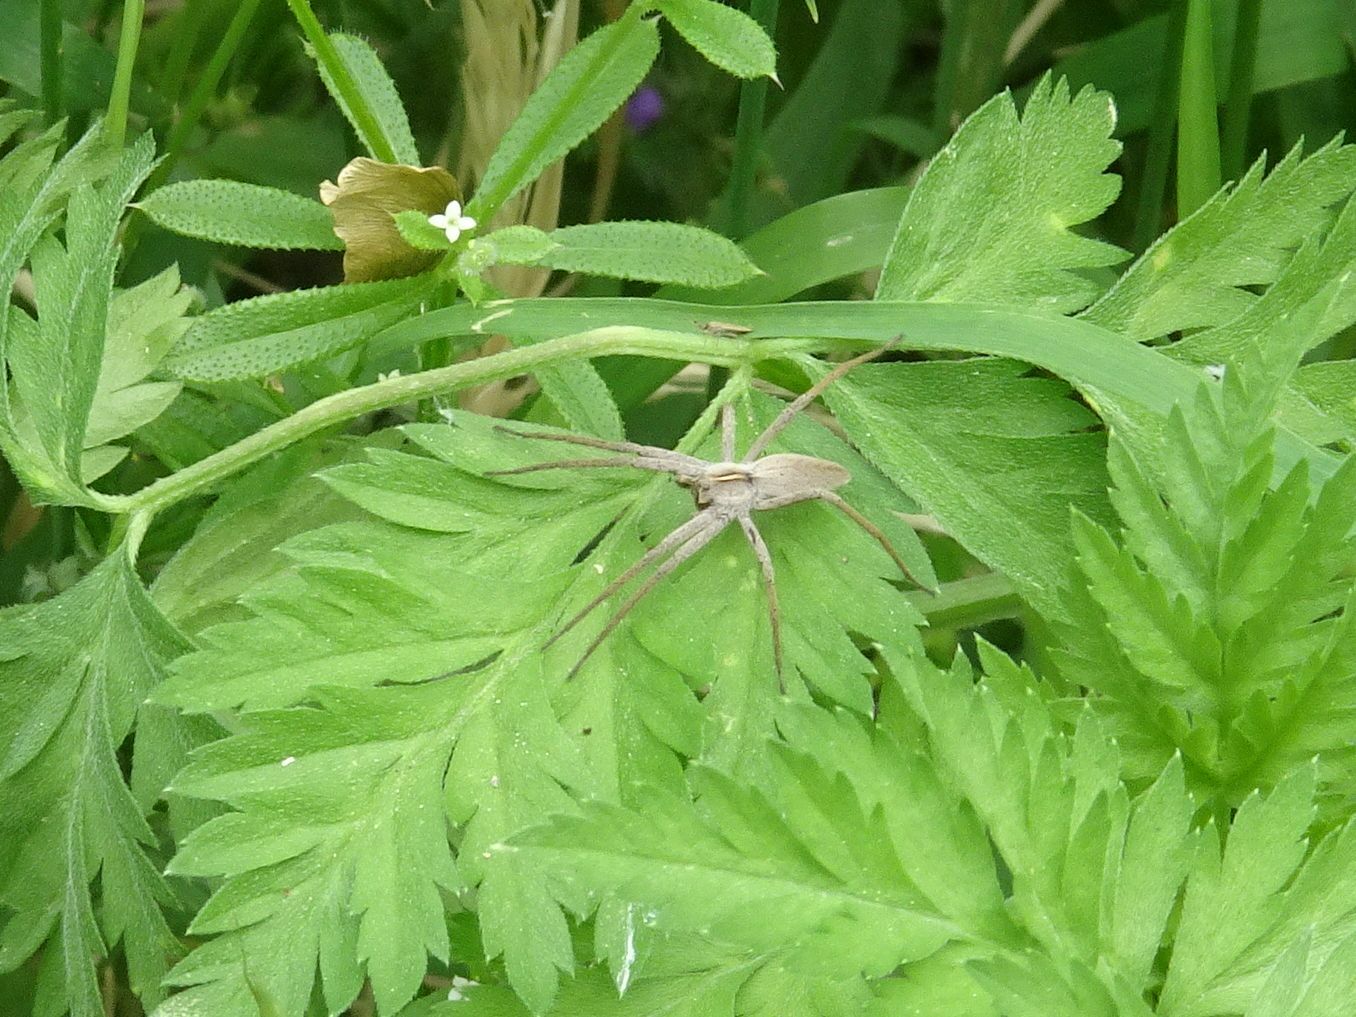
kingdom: Animalia
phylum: Arthropoda
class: Arachnida
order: Araneae
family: Pisauridae
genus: Pisaura
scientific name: Pisaura mirabilis
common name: Tent spider
